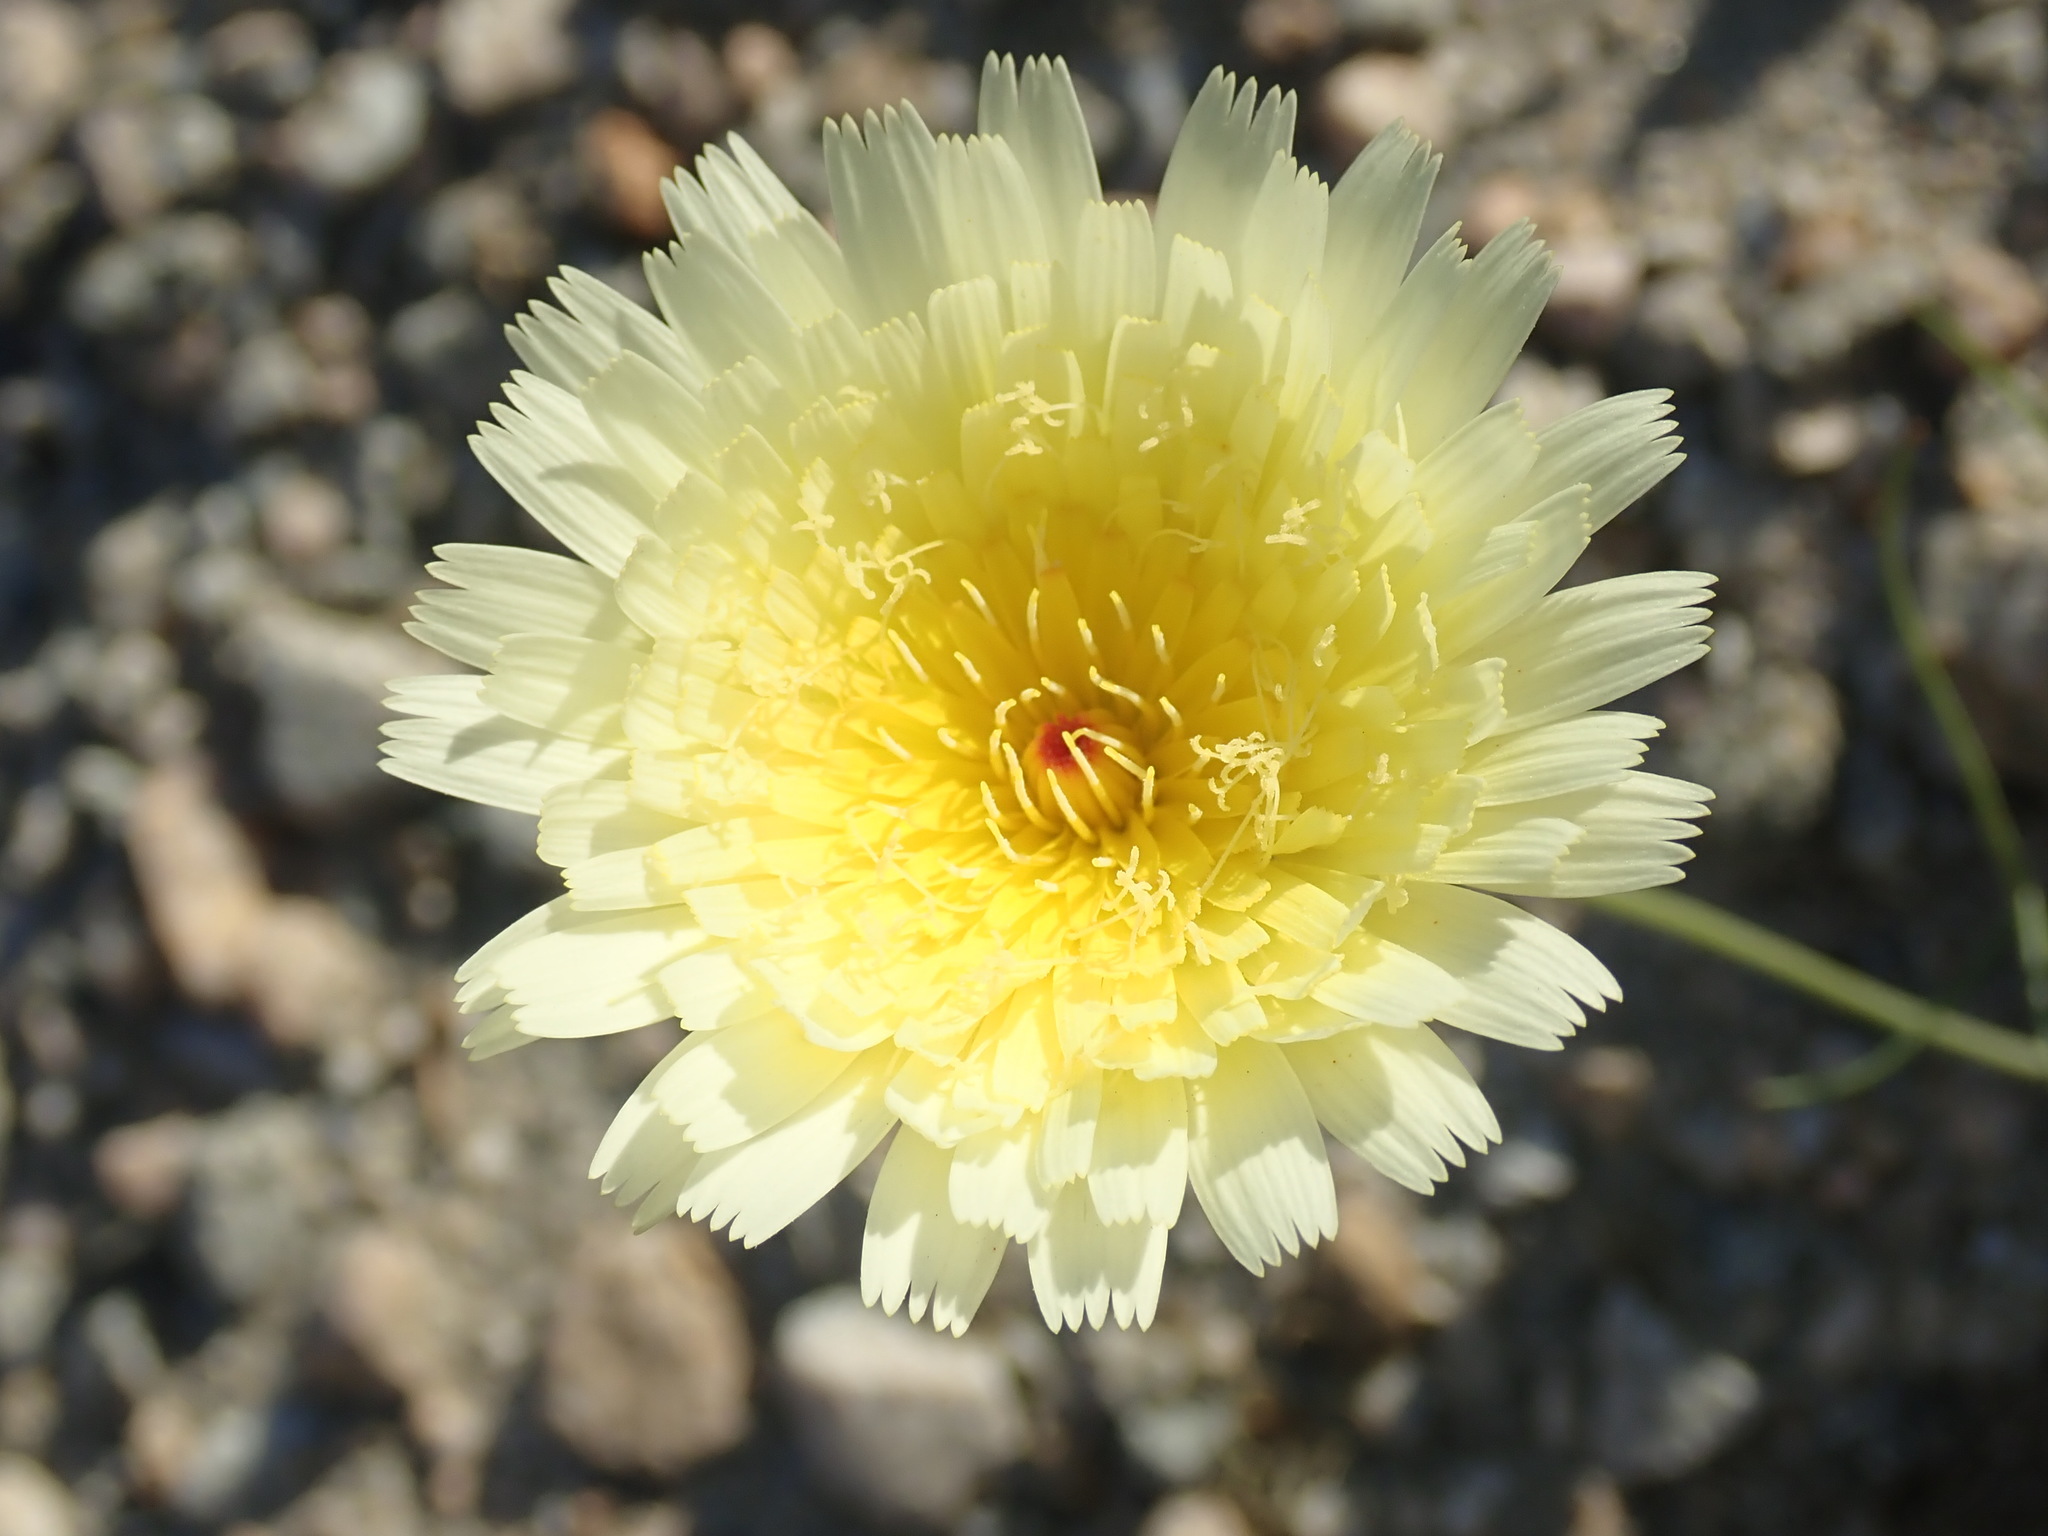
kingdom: Plantae
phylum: Tracheophyta
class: Magnoliopsida
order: Asterales
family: Asteraceae
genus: Malacothrix
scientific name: Malacothrix glabrata
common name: Smooth desert-dandelion
